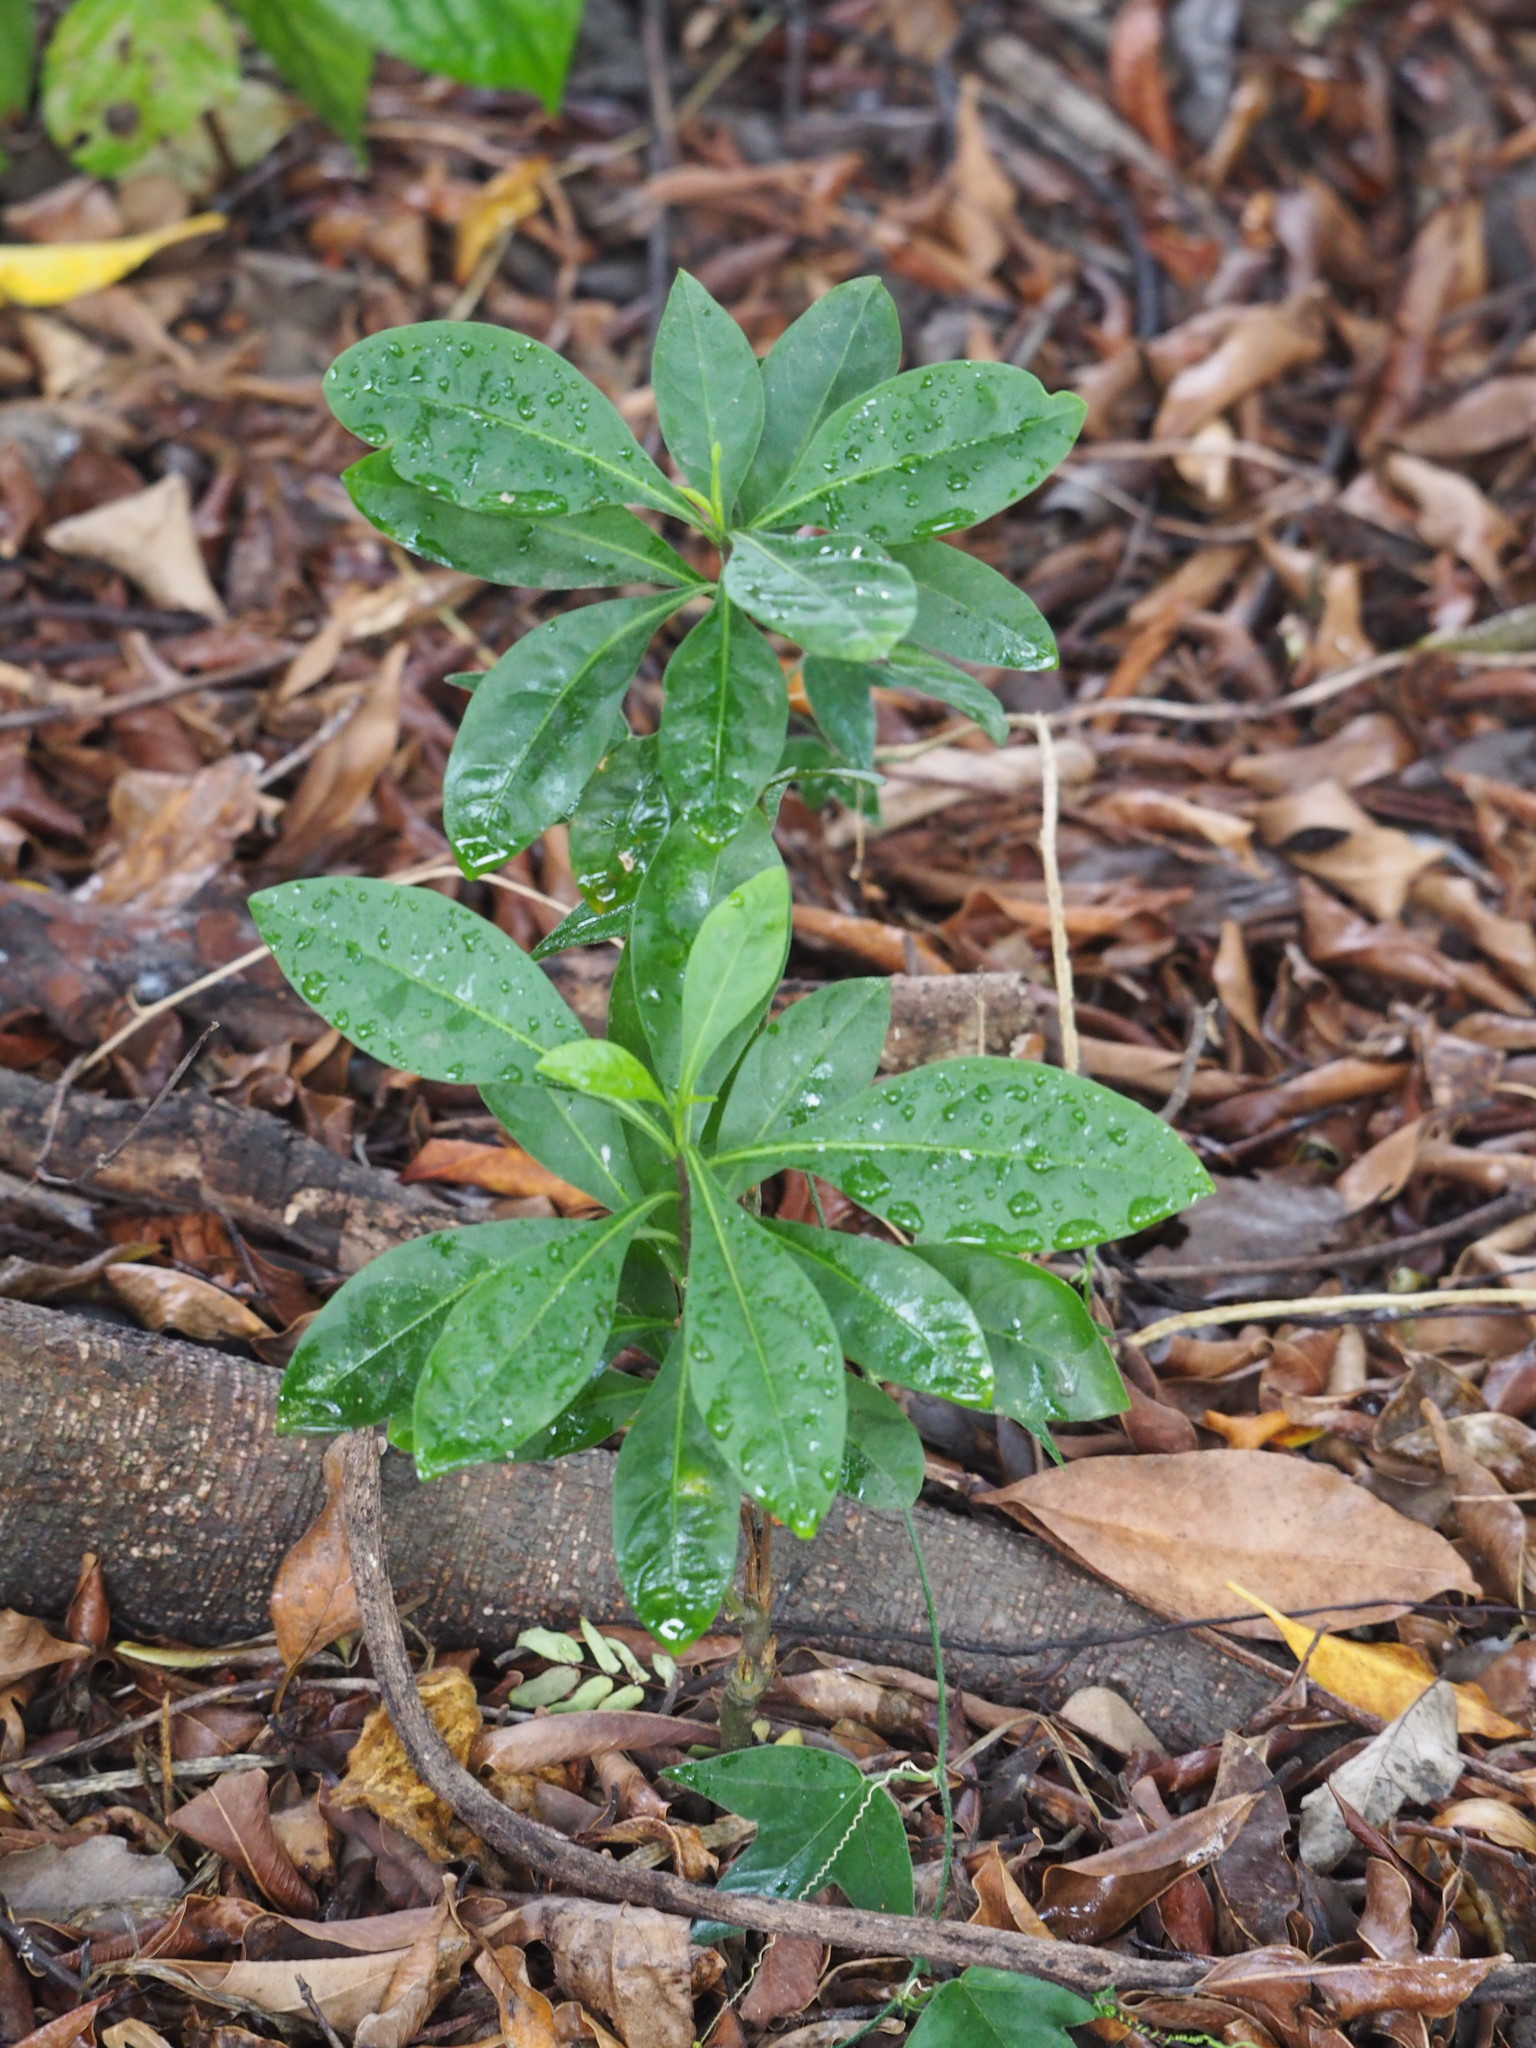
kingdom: Plantae
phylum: Tracheophyta
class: Magnoliopsida
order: Solanales
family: Solanaceae
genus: Solanum
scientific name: Solanum diphyllum
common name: Twoleaf nightshade
